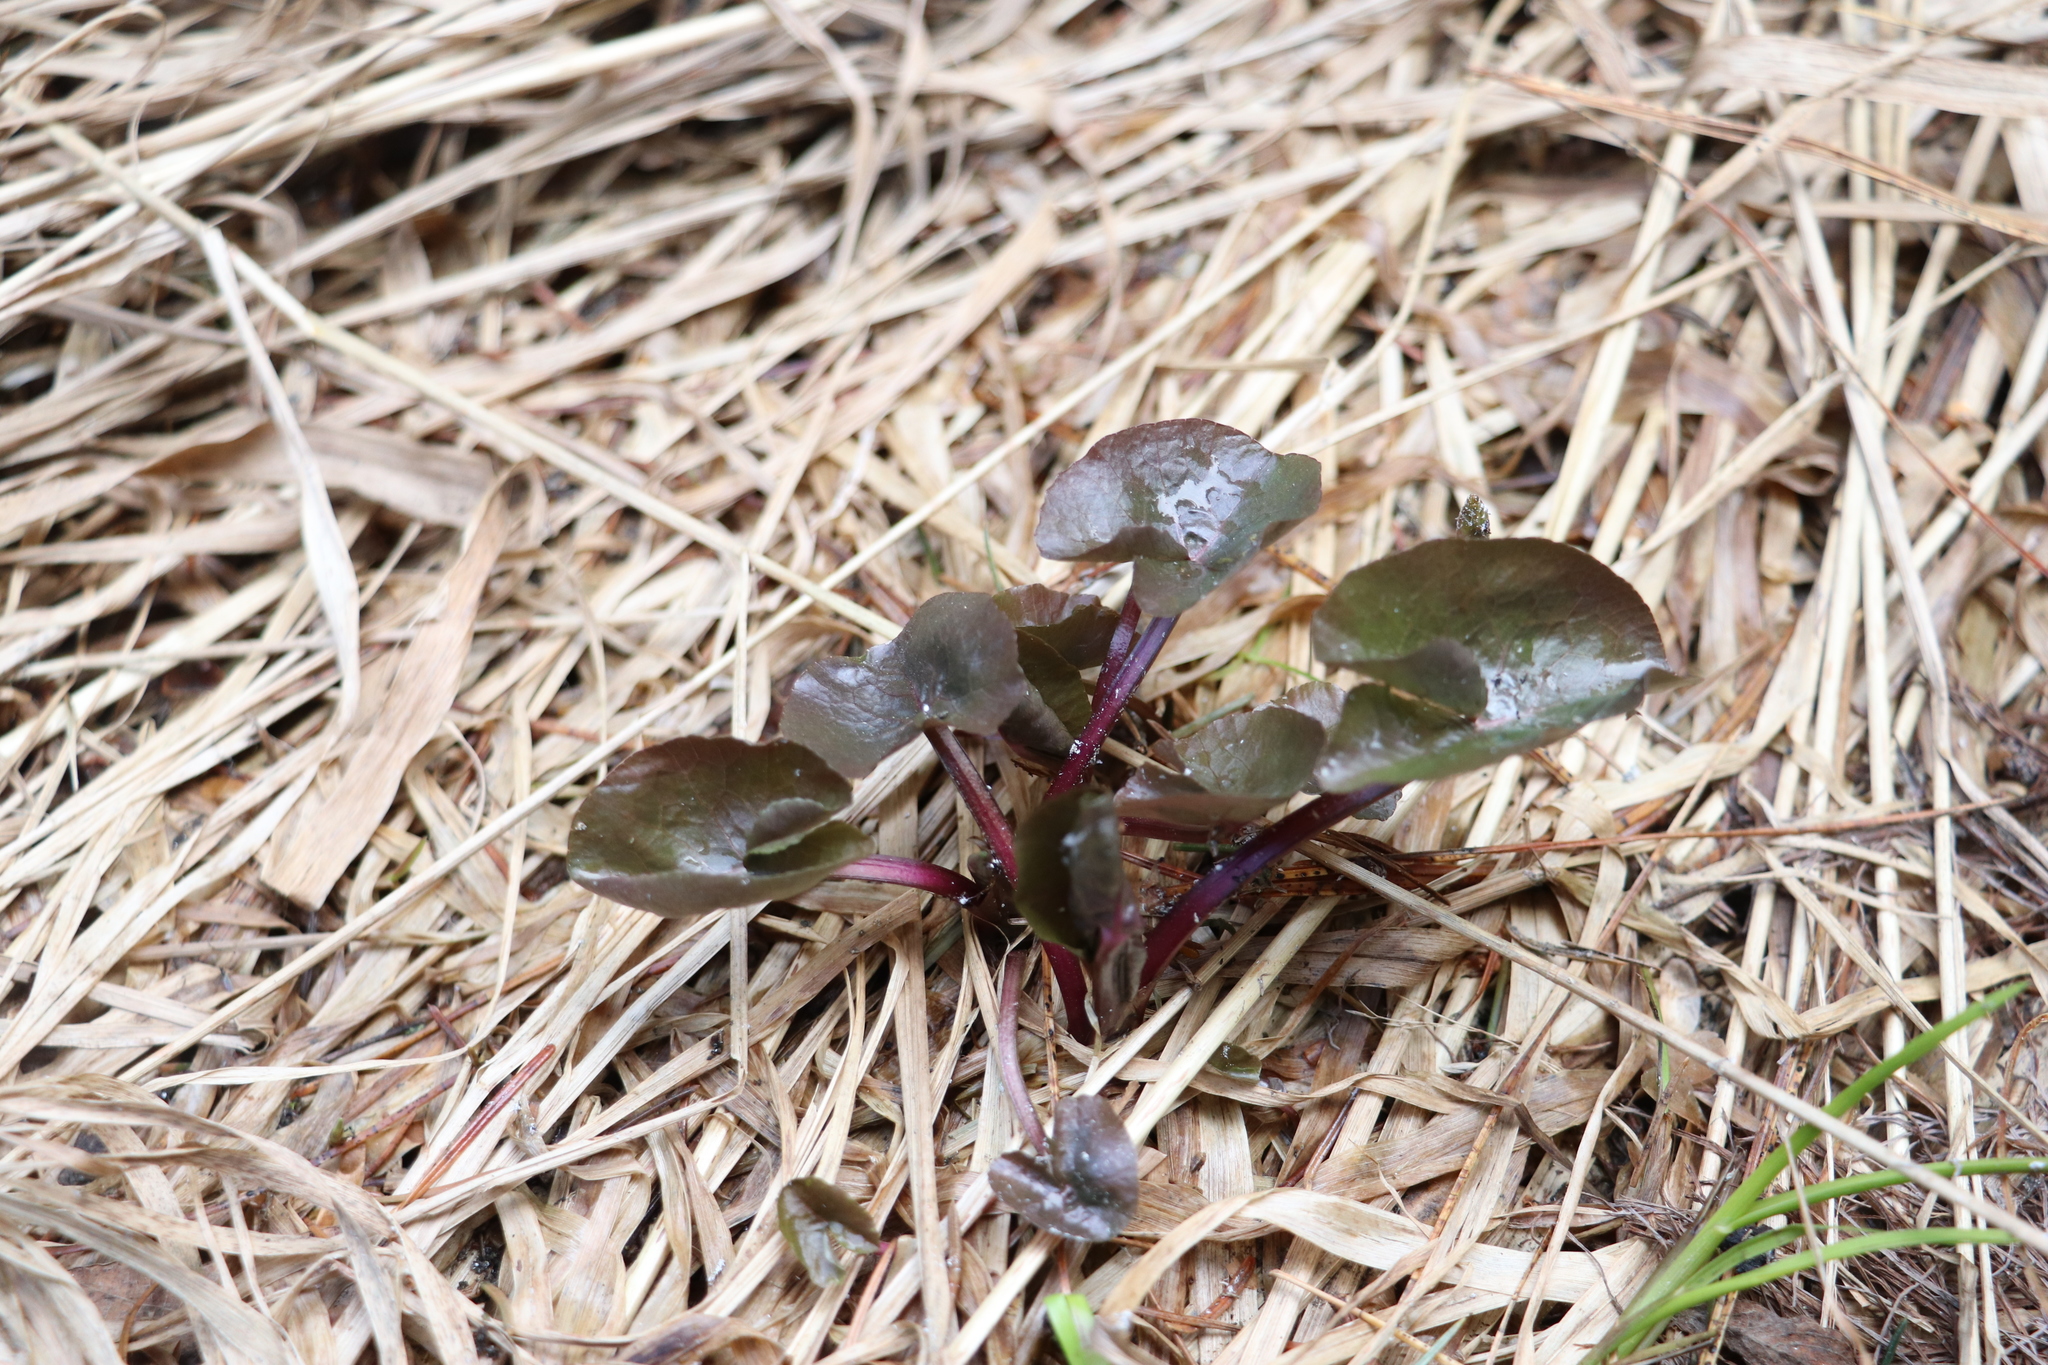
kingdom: Plantae
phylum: Tracheophyta
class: Magnoliopsida
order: Ranunculales
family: Ranunculaceae
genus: Caltha
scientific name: Caltha palustris
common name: Marsh marigold
